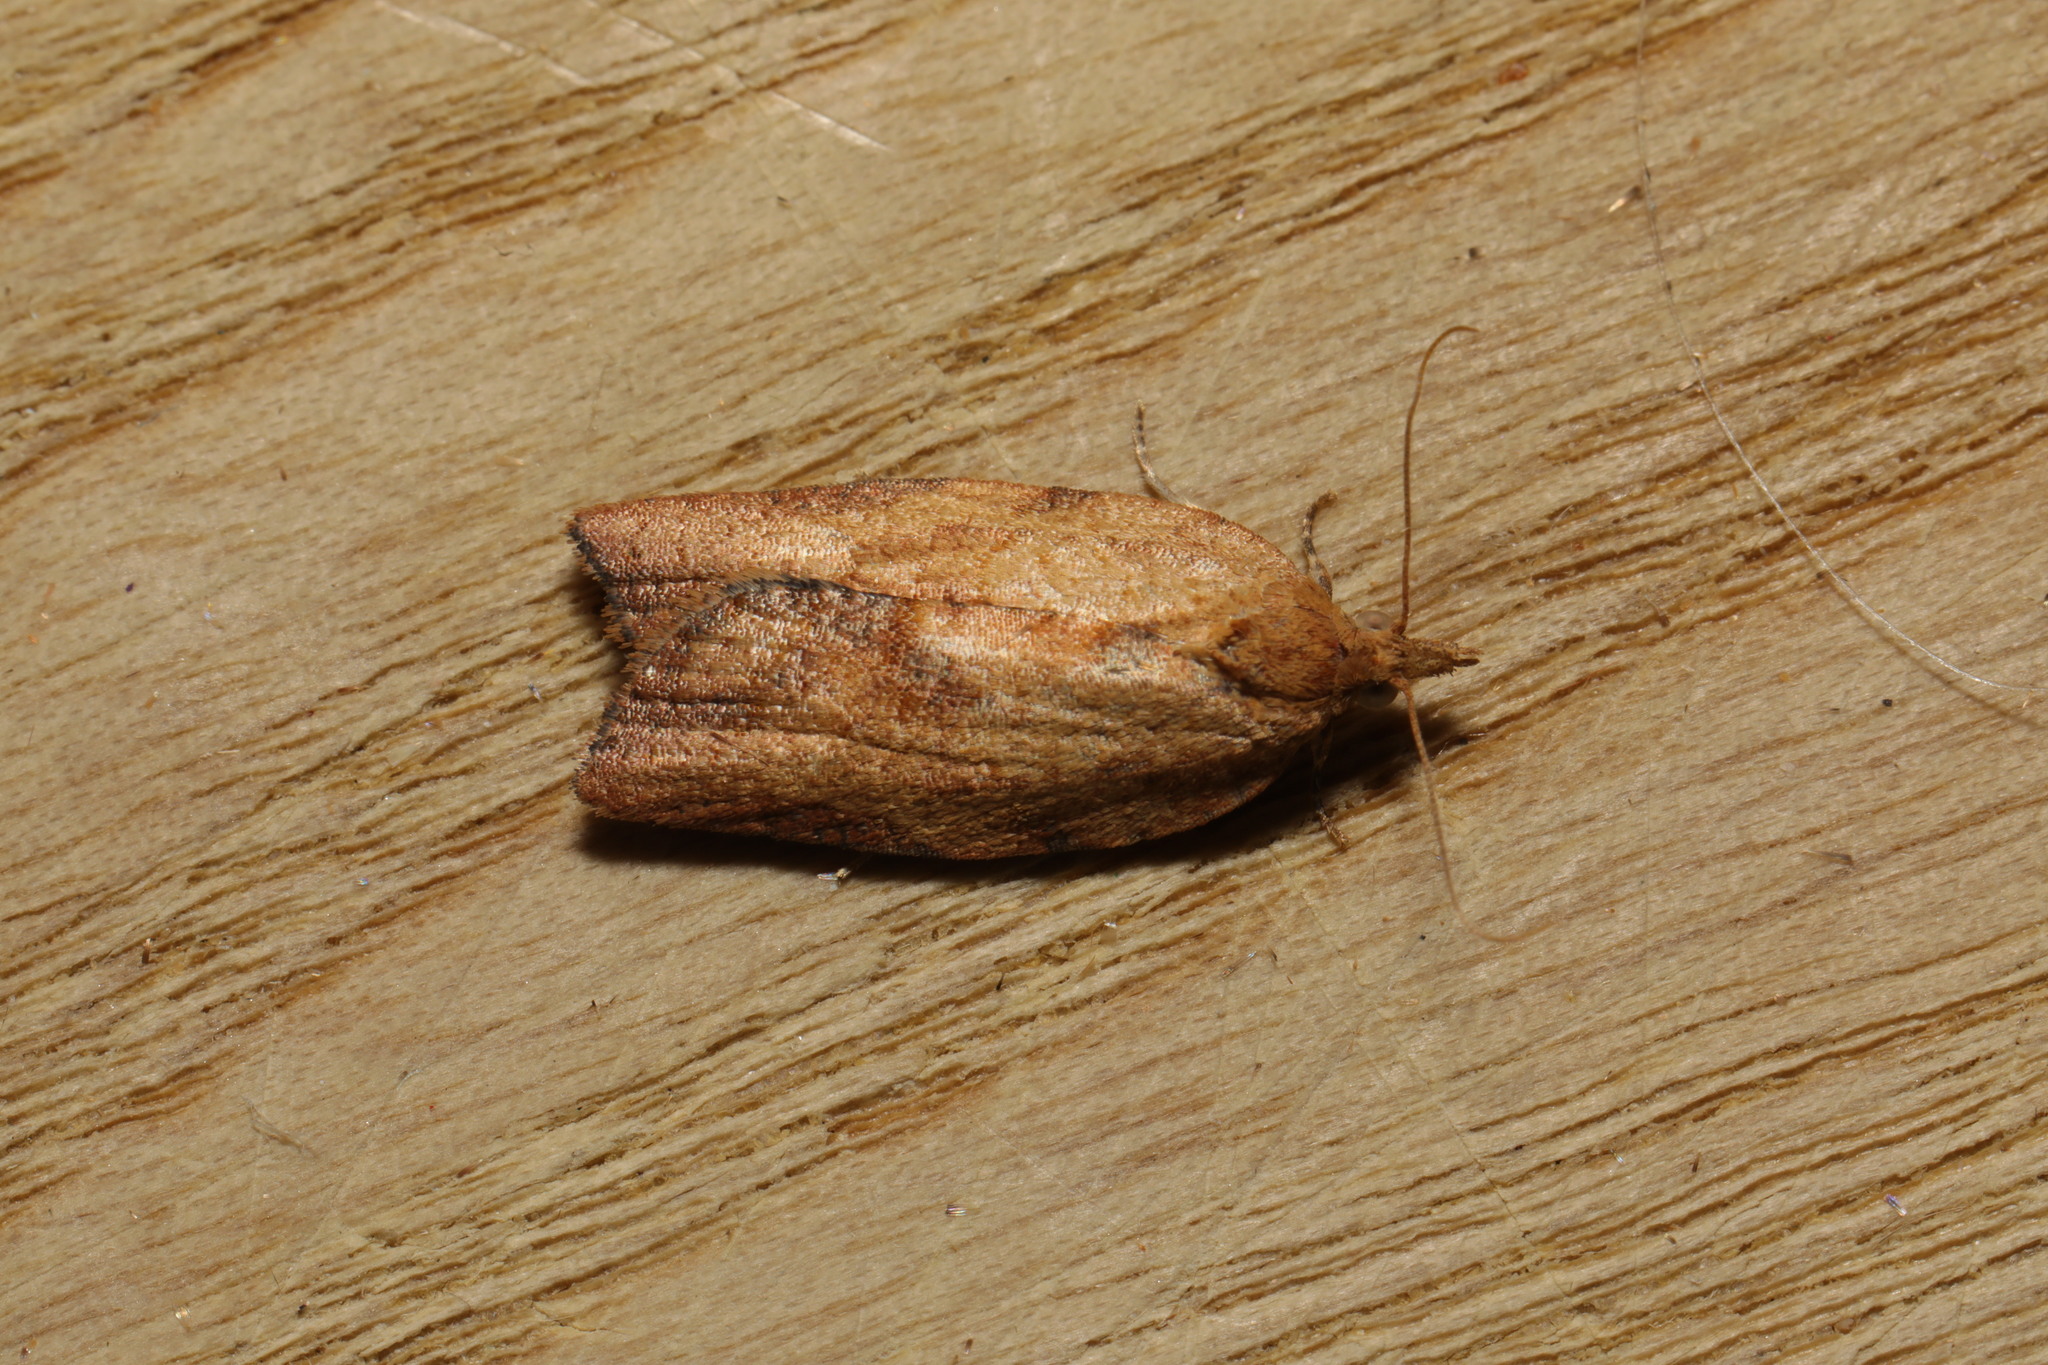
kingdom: Animalia
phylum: Arthropoda
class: Insecta
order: Lepidoptera
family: Tortricidae
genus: Epiphyas
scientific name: Epiphyas postvittana
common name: Light brown apple moth
